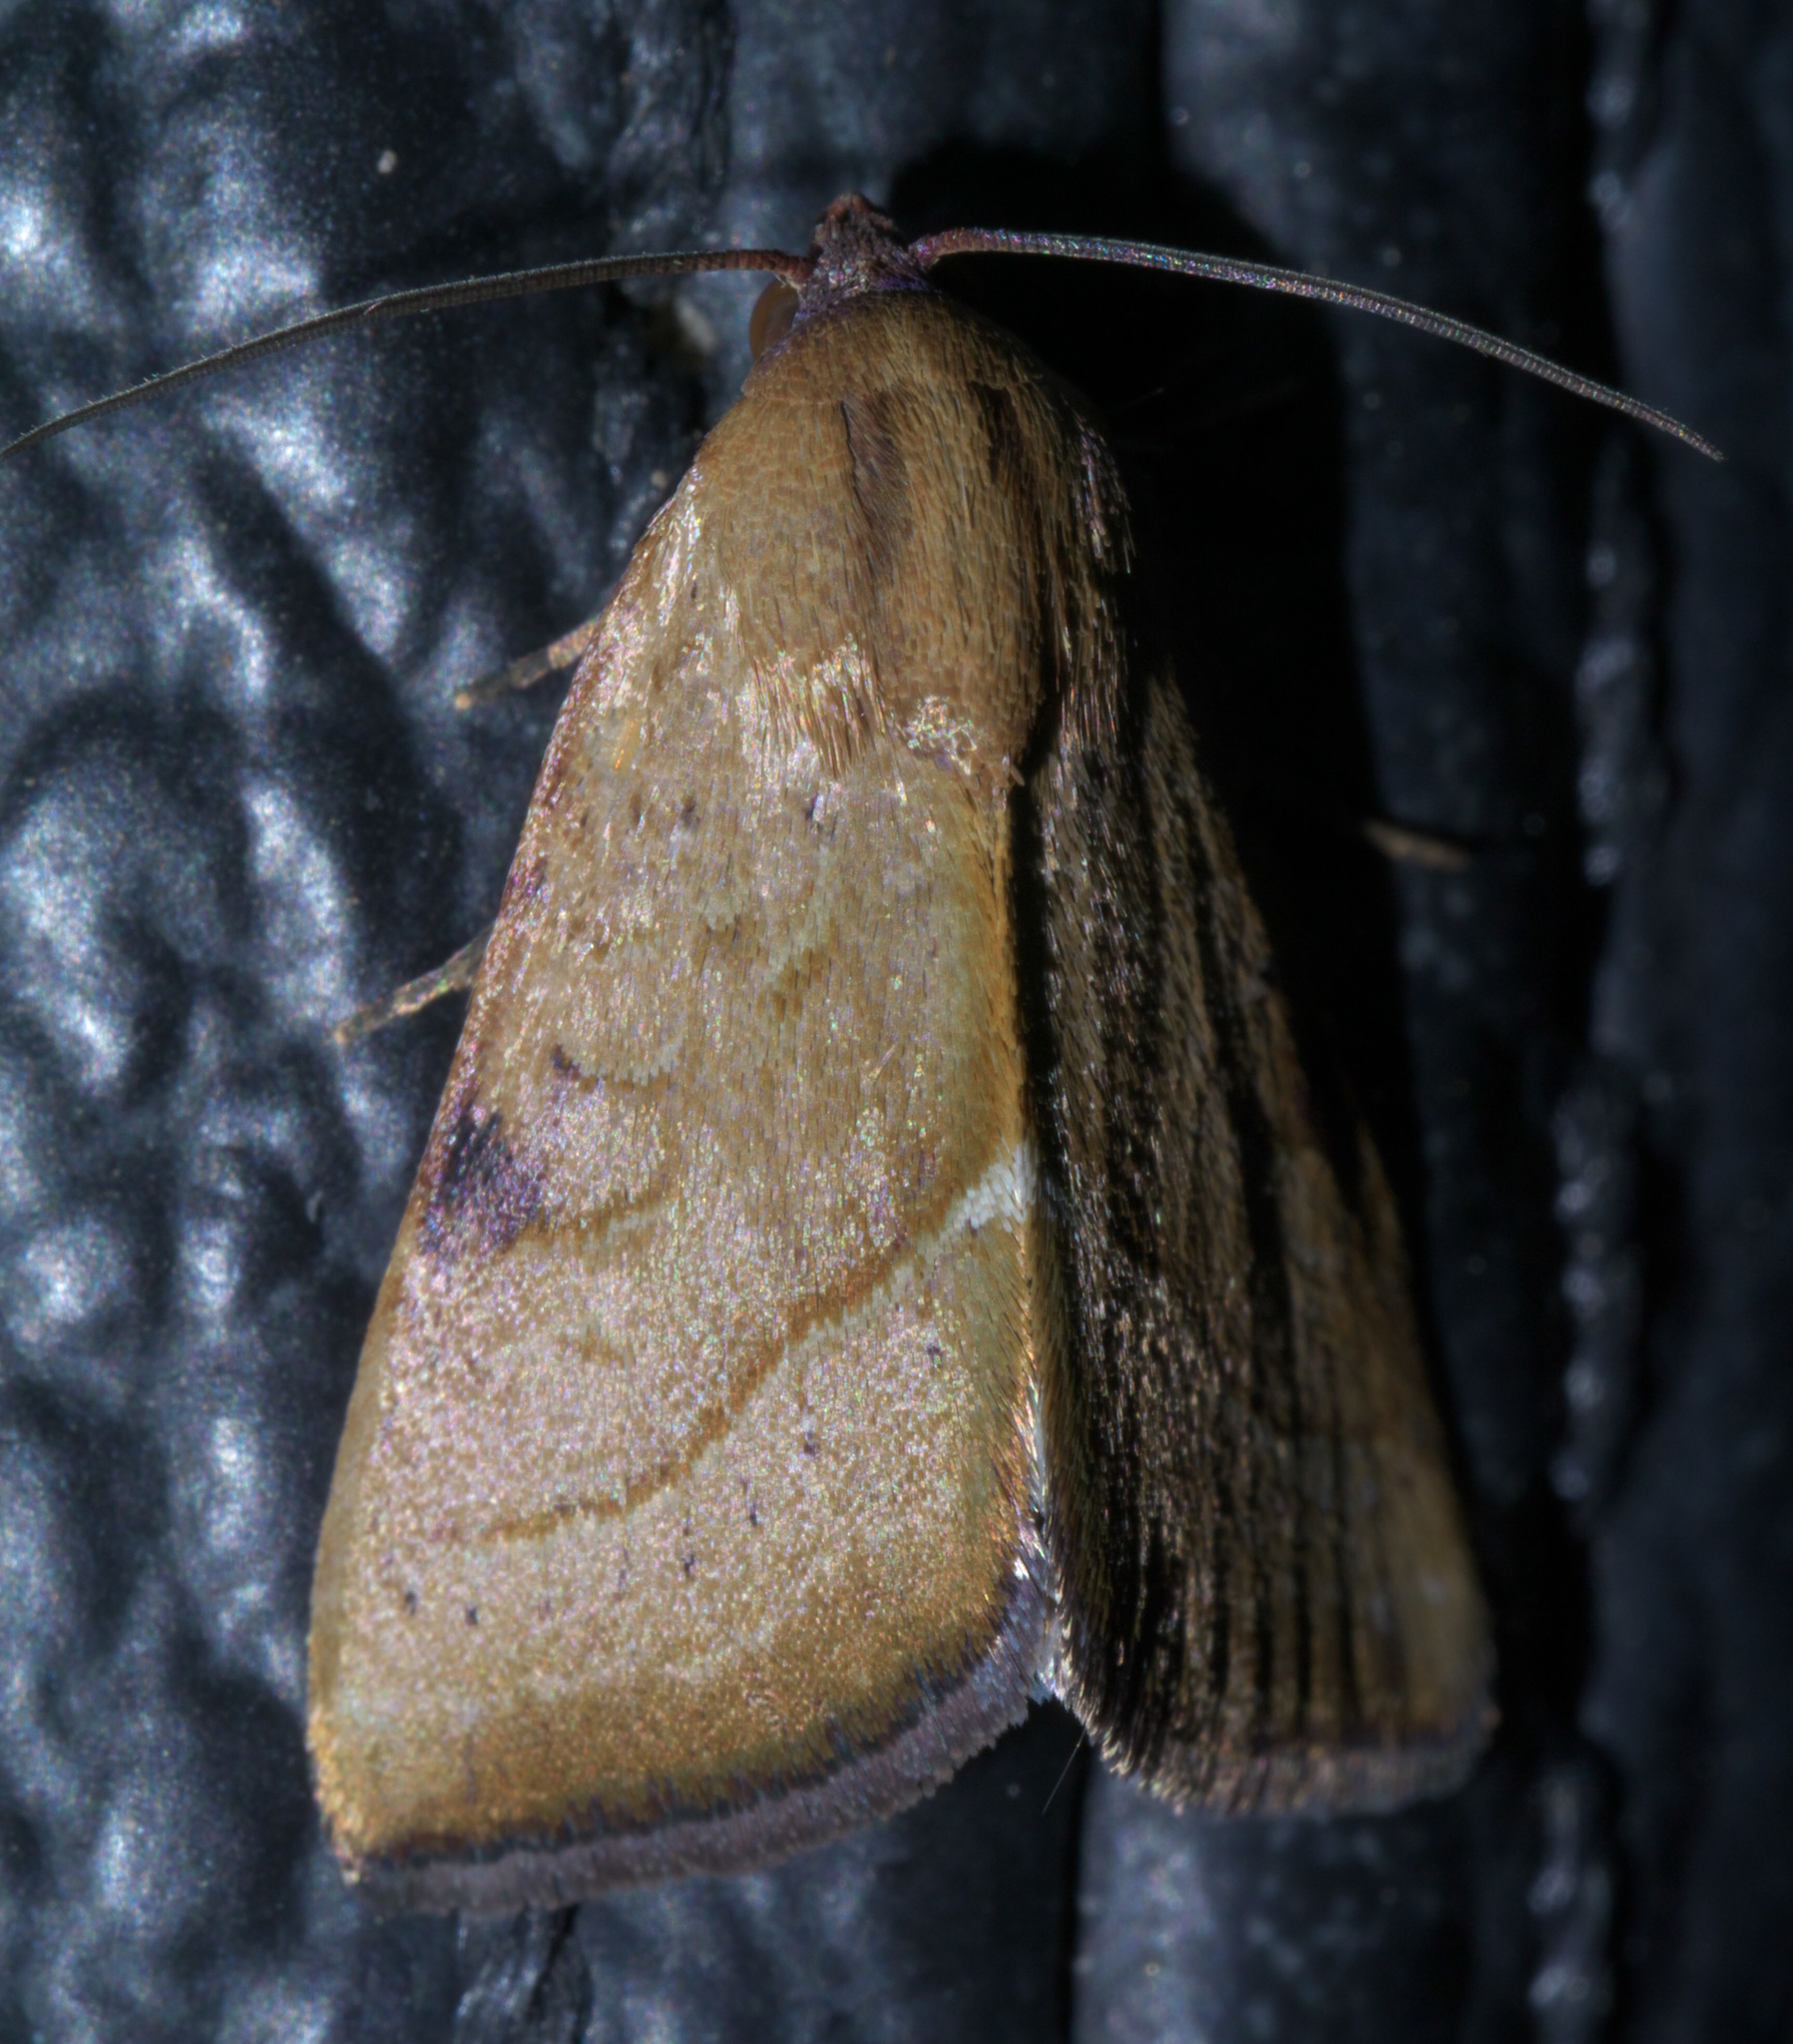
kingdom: Animalia
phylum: Arthropoda
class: Insecta
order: Lepidoptera
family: Noctuidae
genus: Galgula
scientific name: Galgula partita
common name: Wedgeling
